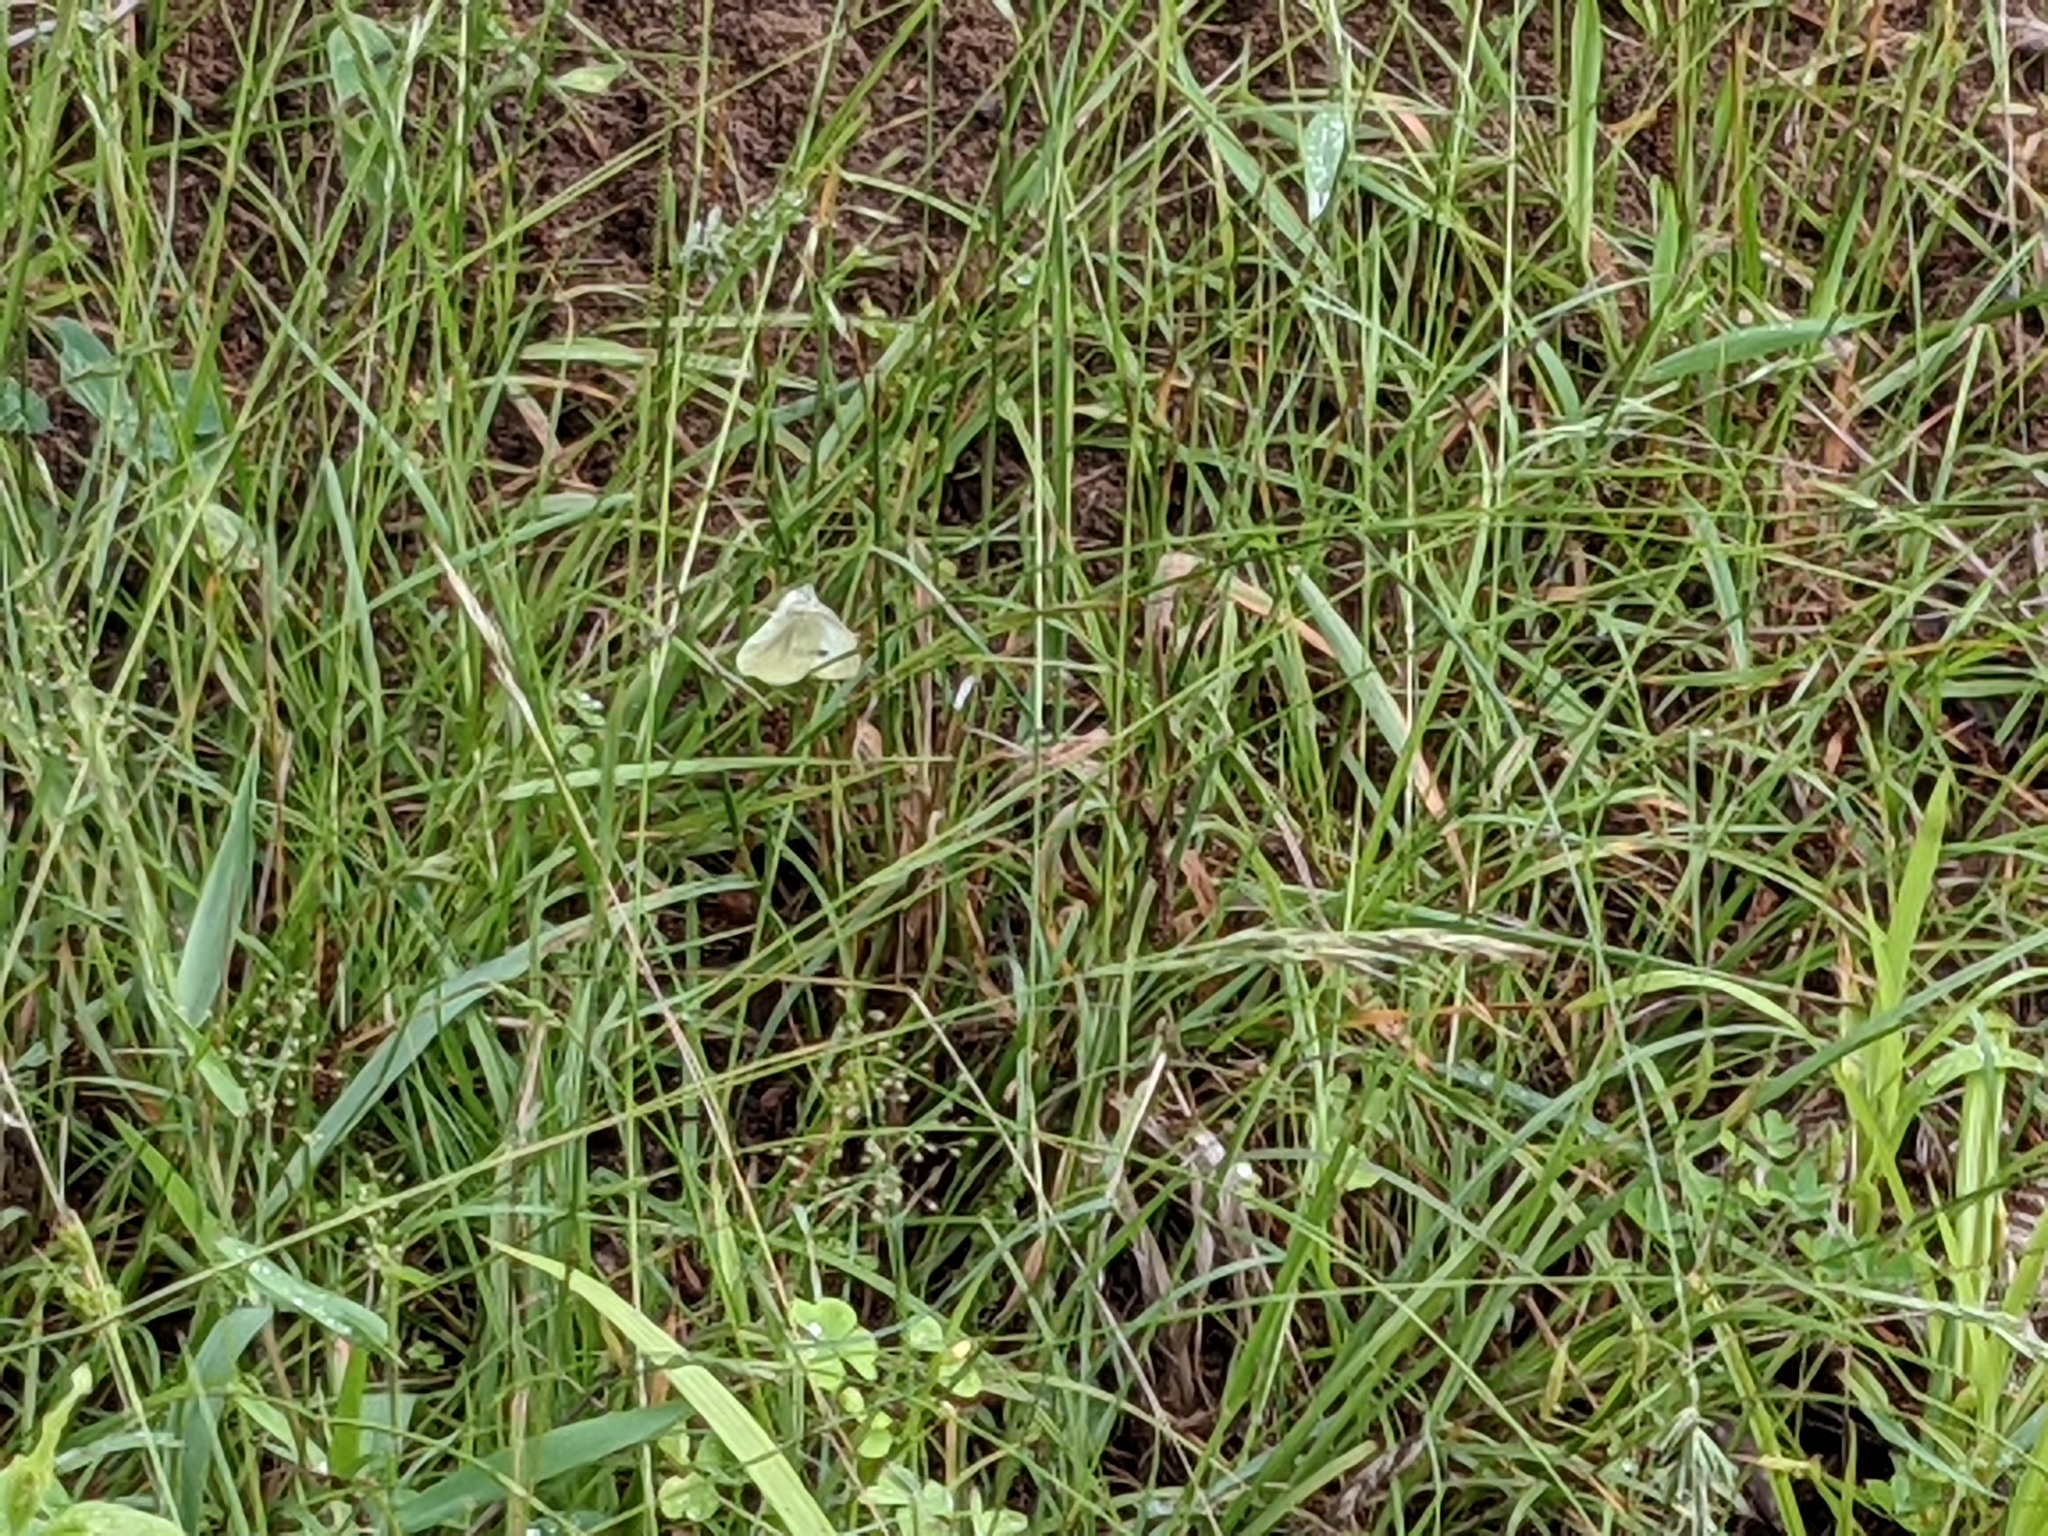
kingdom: Animalia
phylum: Arthropoda
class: Insecta
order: Lepidoptera
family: Pieridae
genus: Pieris
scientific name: Pieris rapae
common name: Small white
